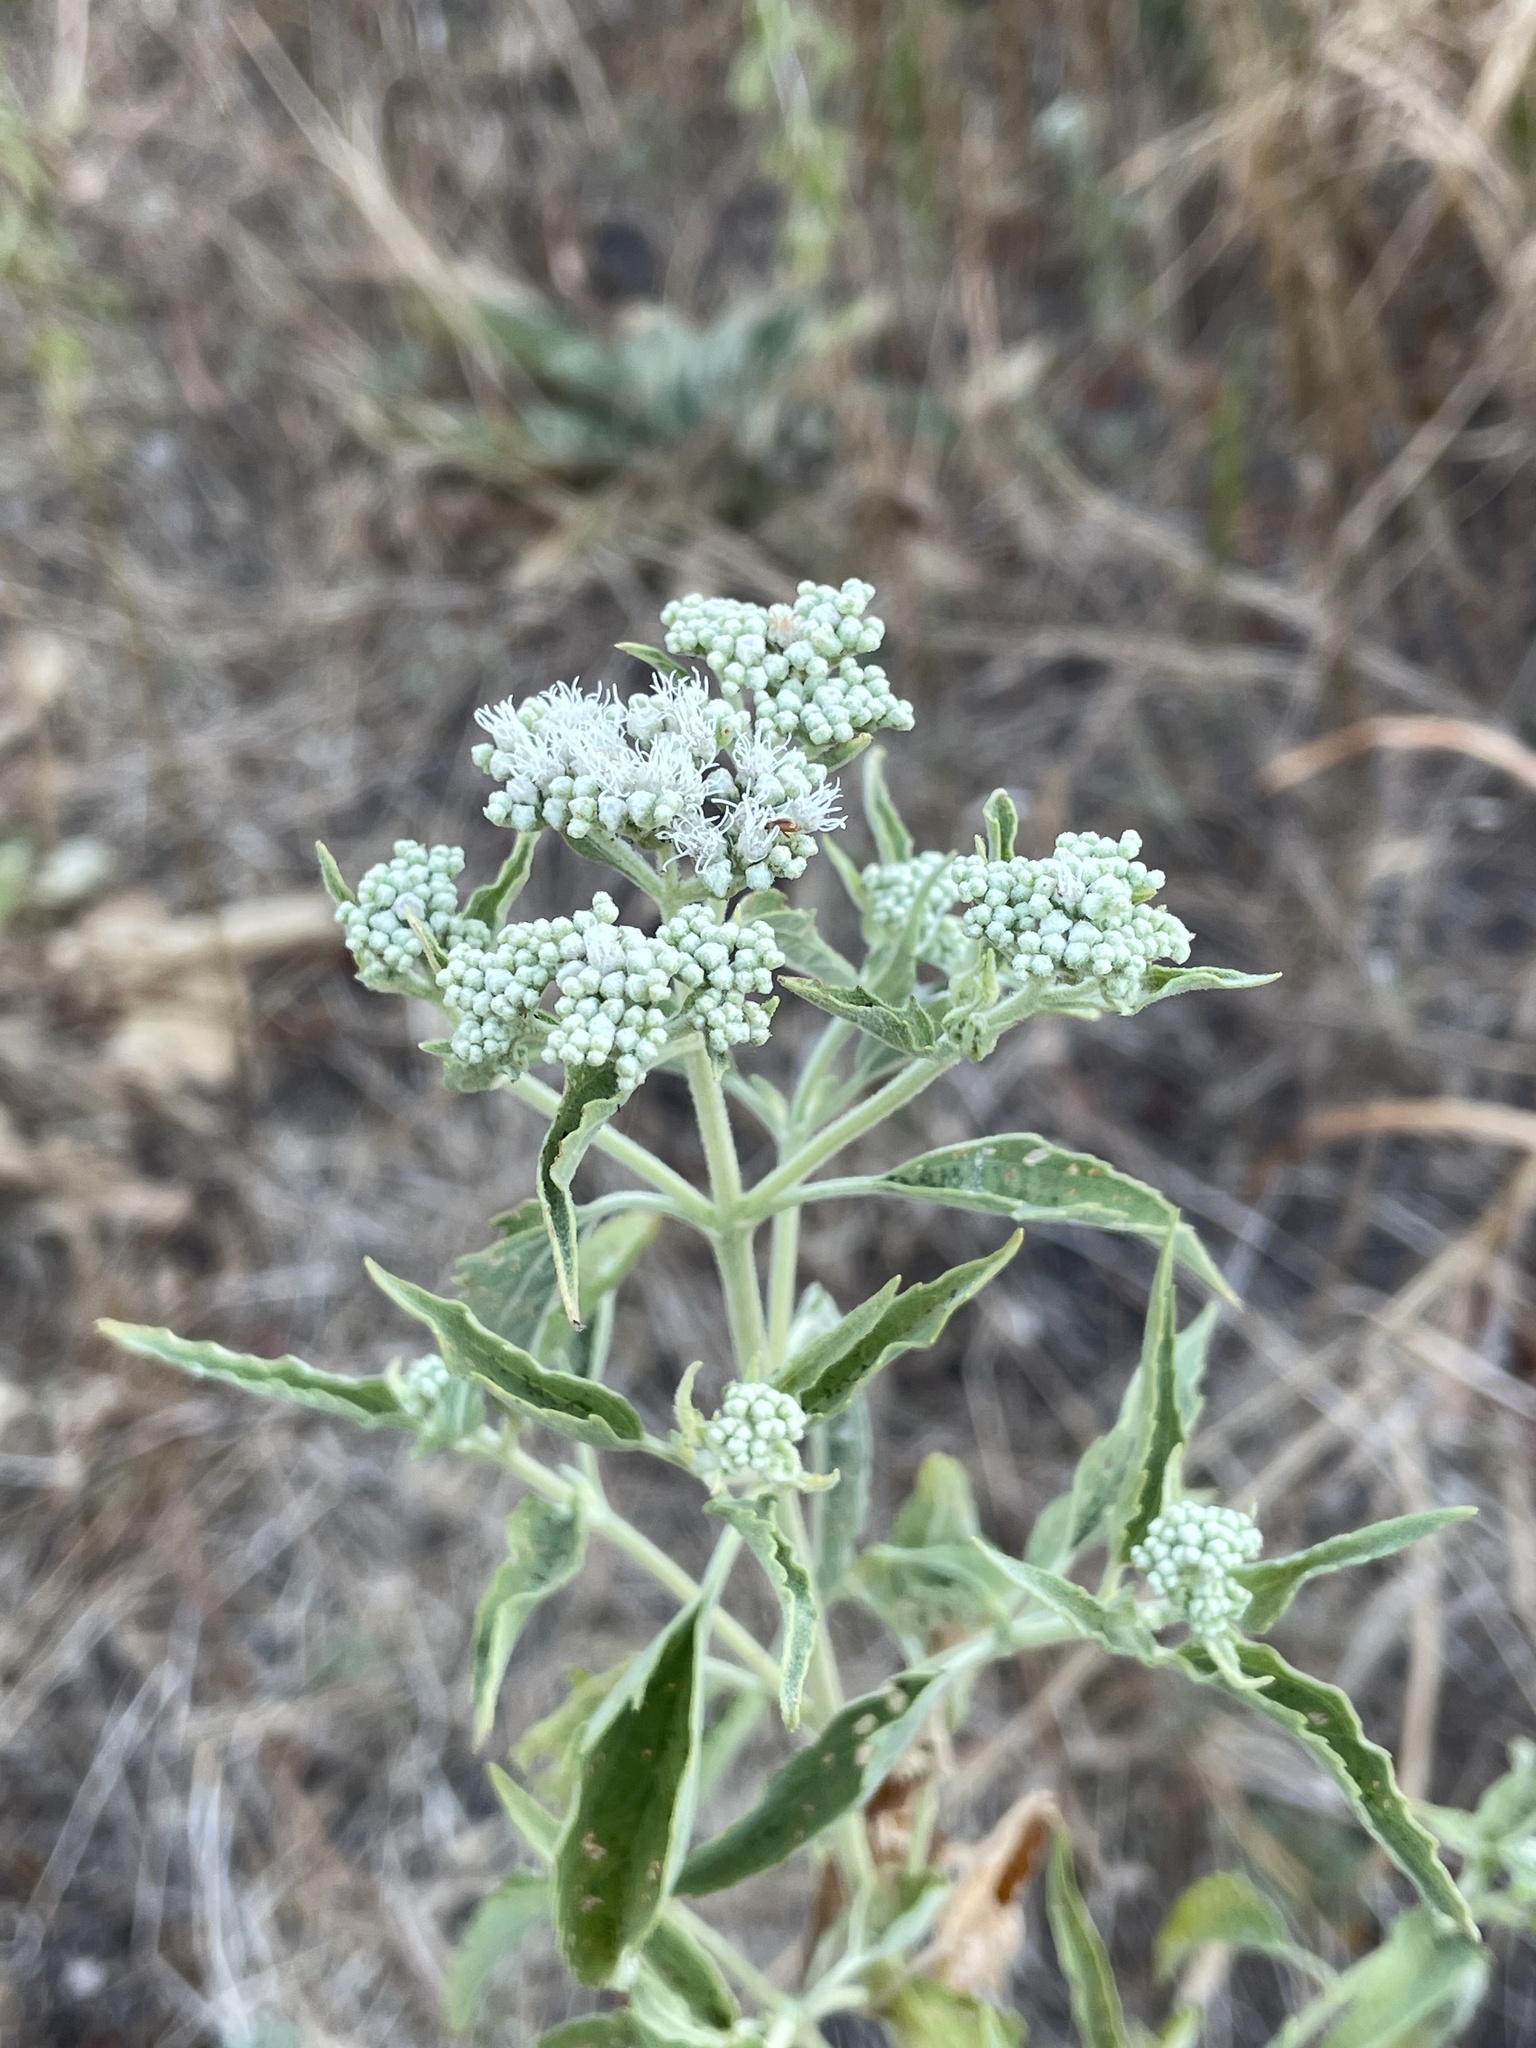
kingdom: Plantae
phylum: Tracheophyta
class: Magnoliopsida
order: Asterales
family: Asteraceae
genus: Eupatorium
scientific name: Eupatorium serotinum
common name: Late boneset
